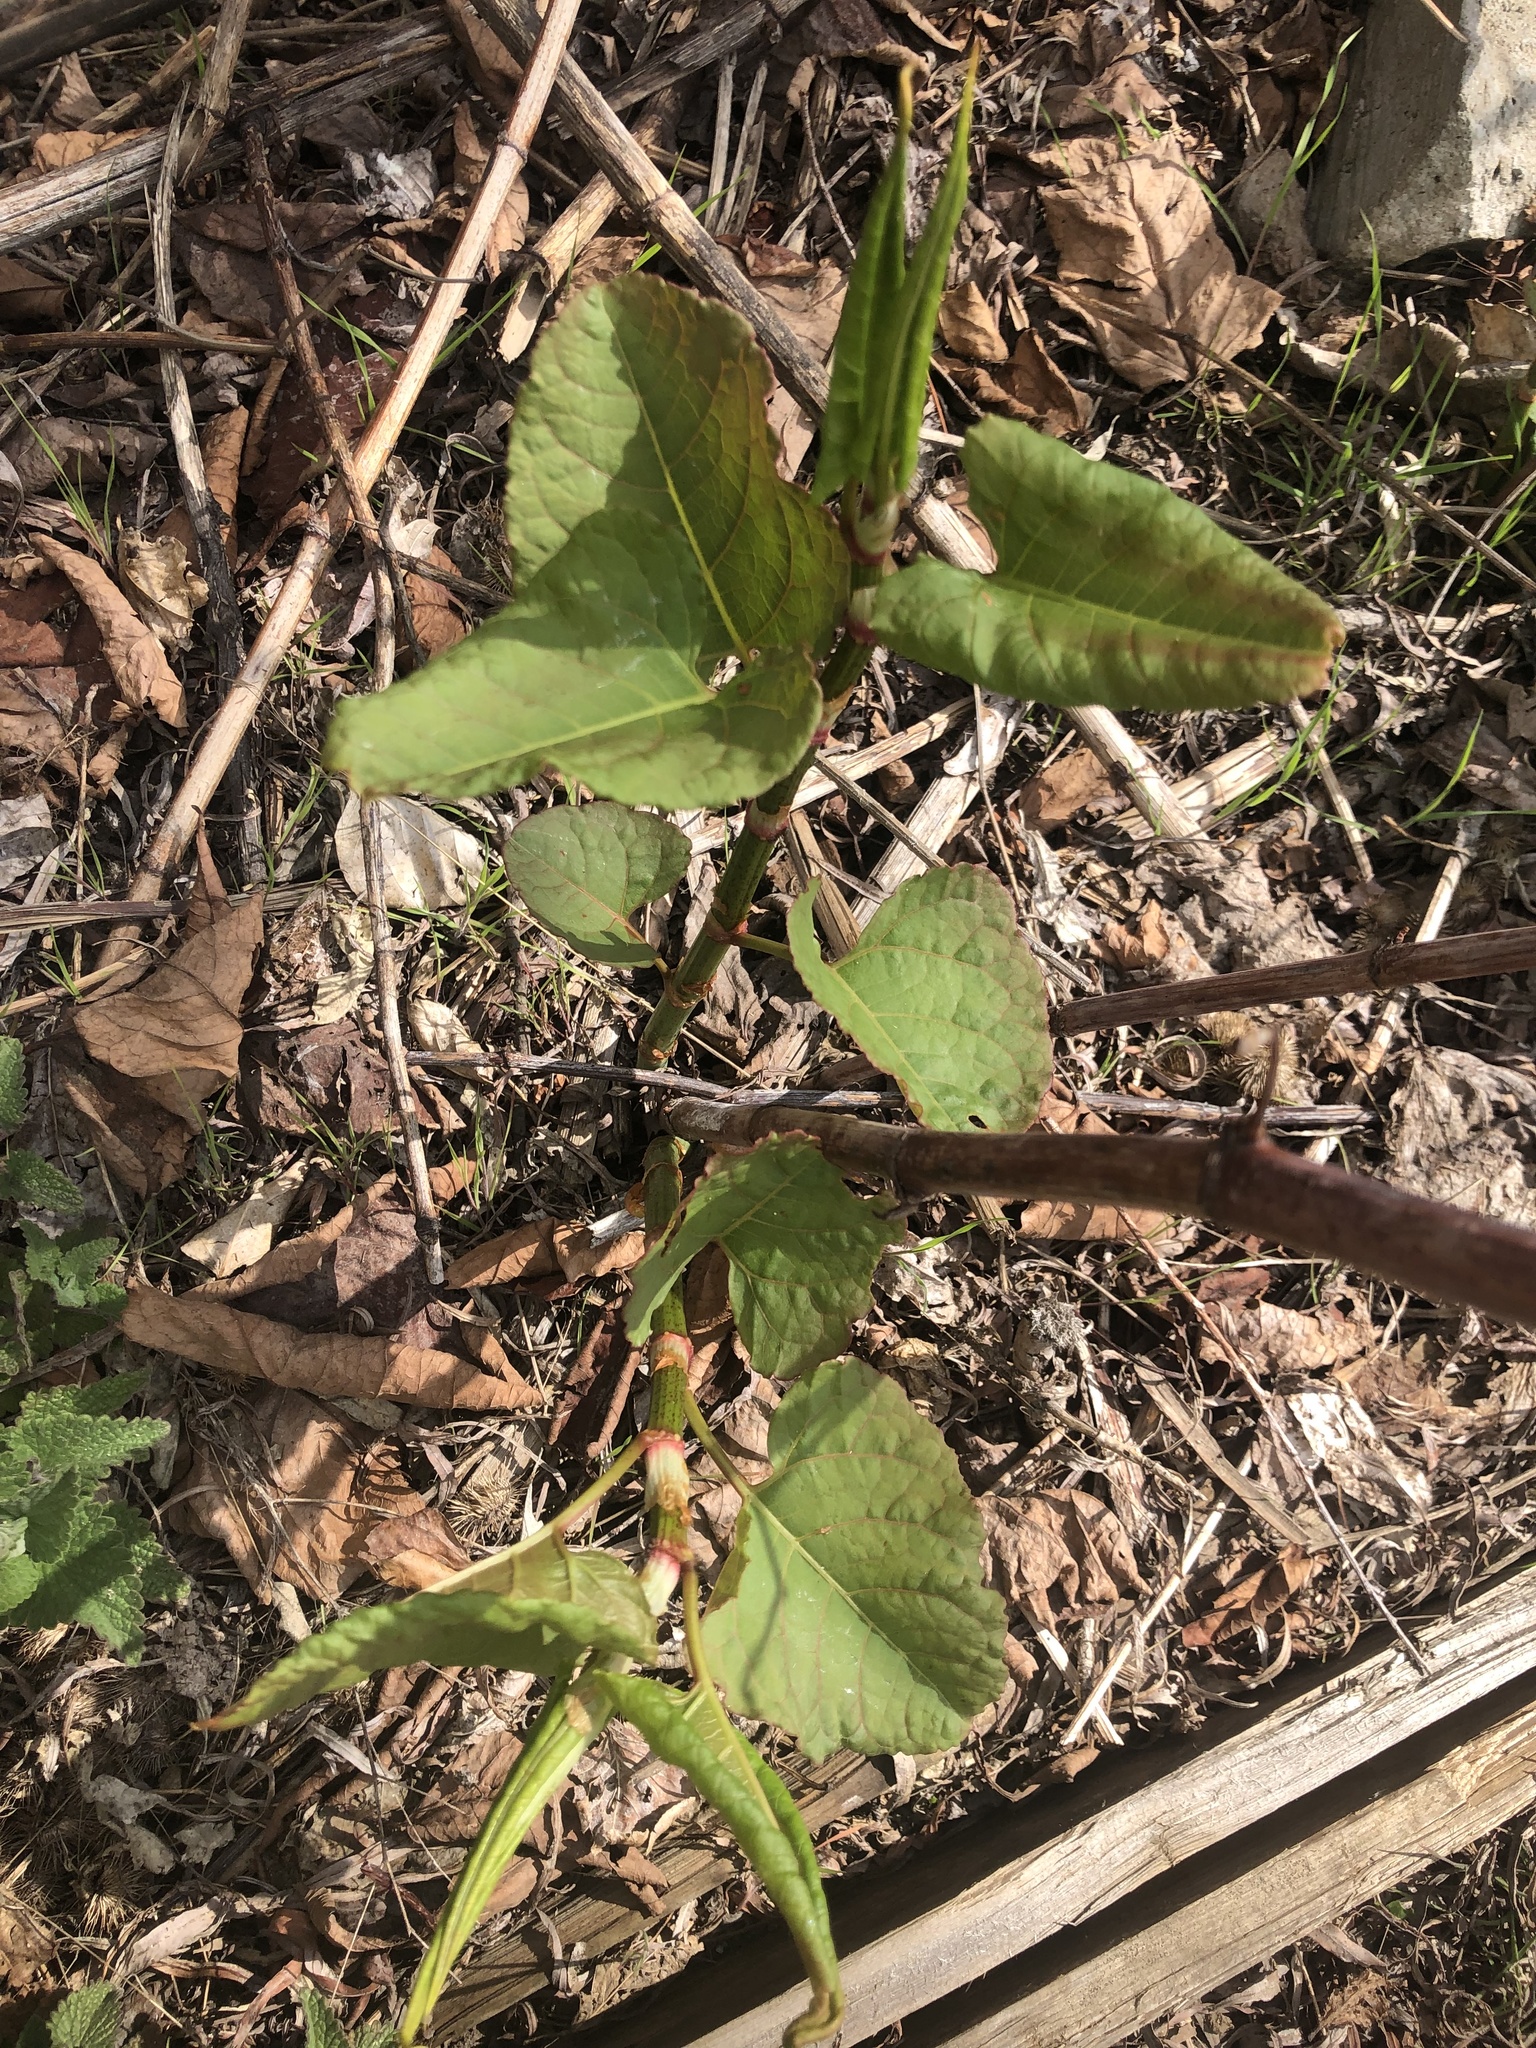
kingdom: Plantae
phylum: Tracheophyta
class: Magnoliopsida
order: Caryophyllales
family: Polygonaceae
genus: Reynoutria
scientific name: Reynoutria japonica
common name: Japanese knotweed
